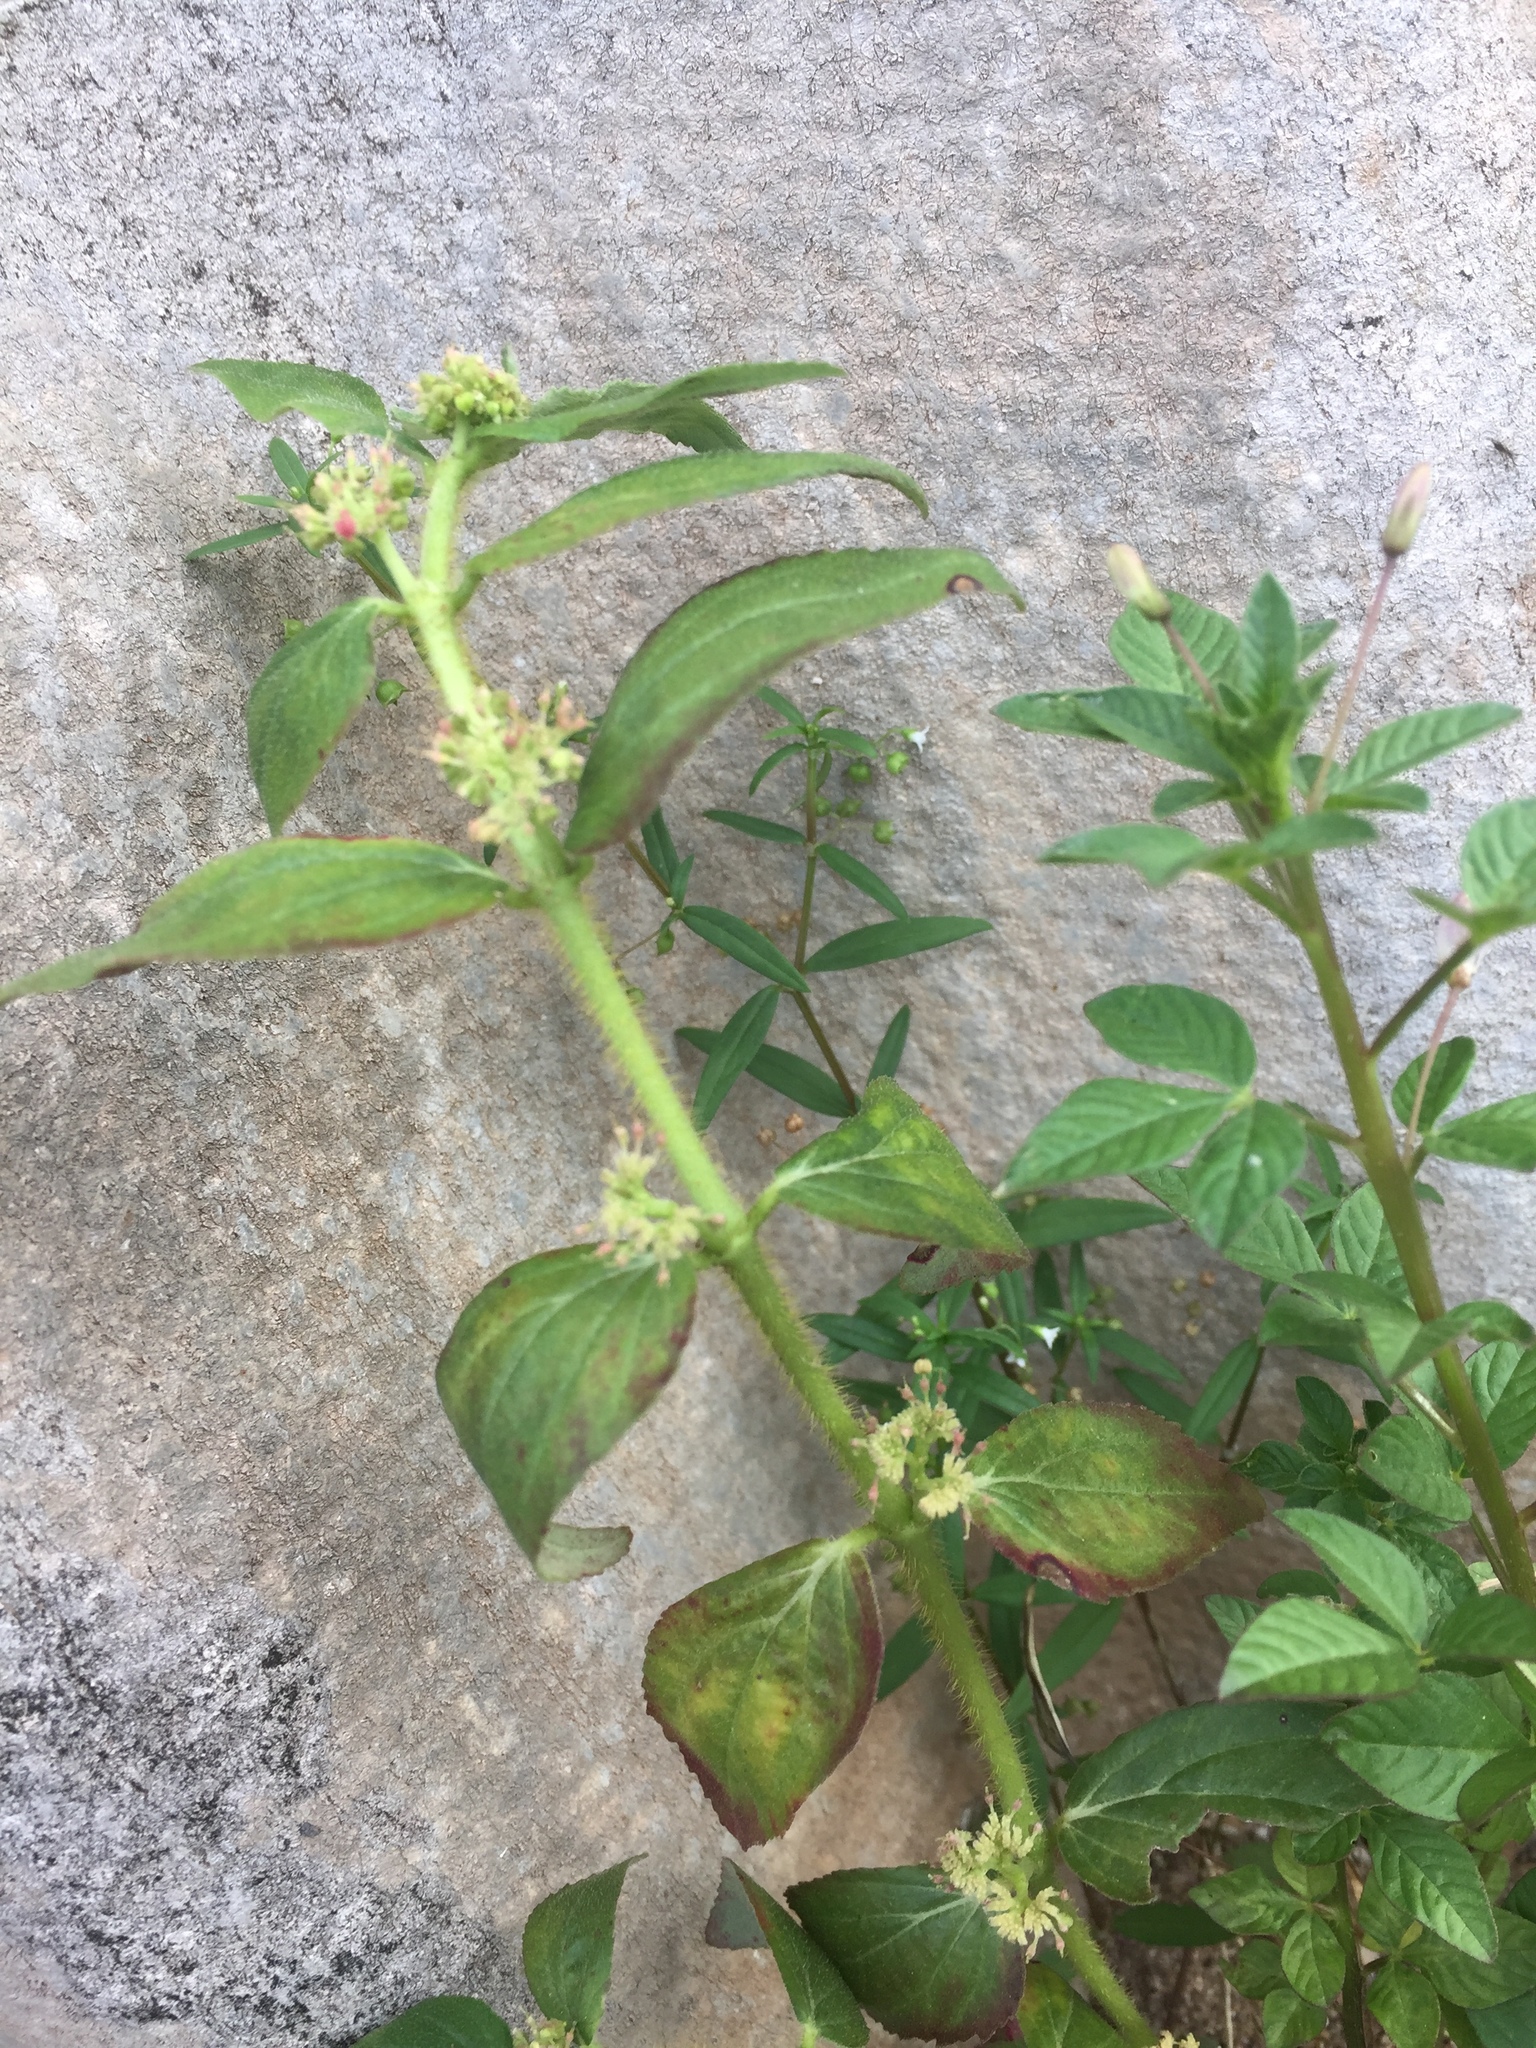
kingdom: Plantae
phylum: Tracheophyta
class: Magnoliopsida
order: Malpighiales
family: Euphorbiaceae
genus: Euphorbia
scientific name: Euphorbia hirta
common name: Pillpod sandmat
